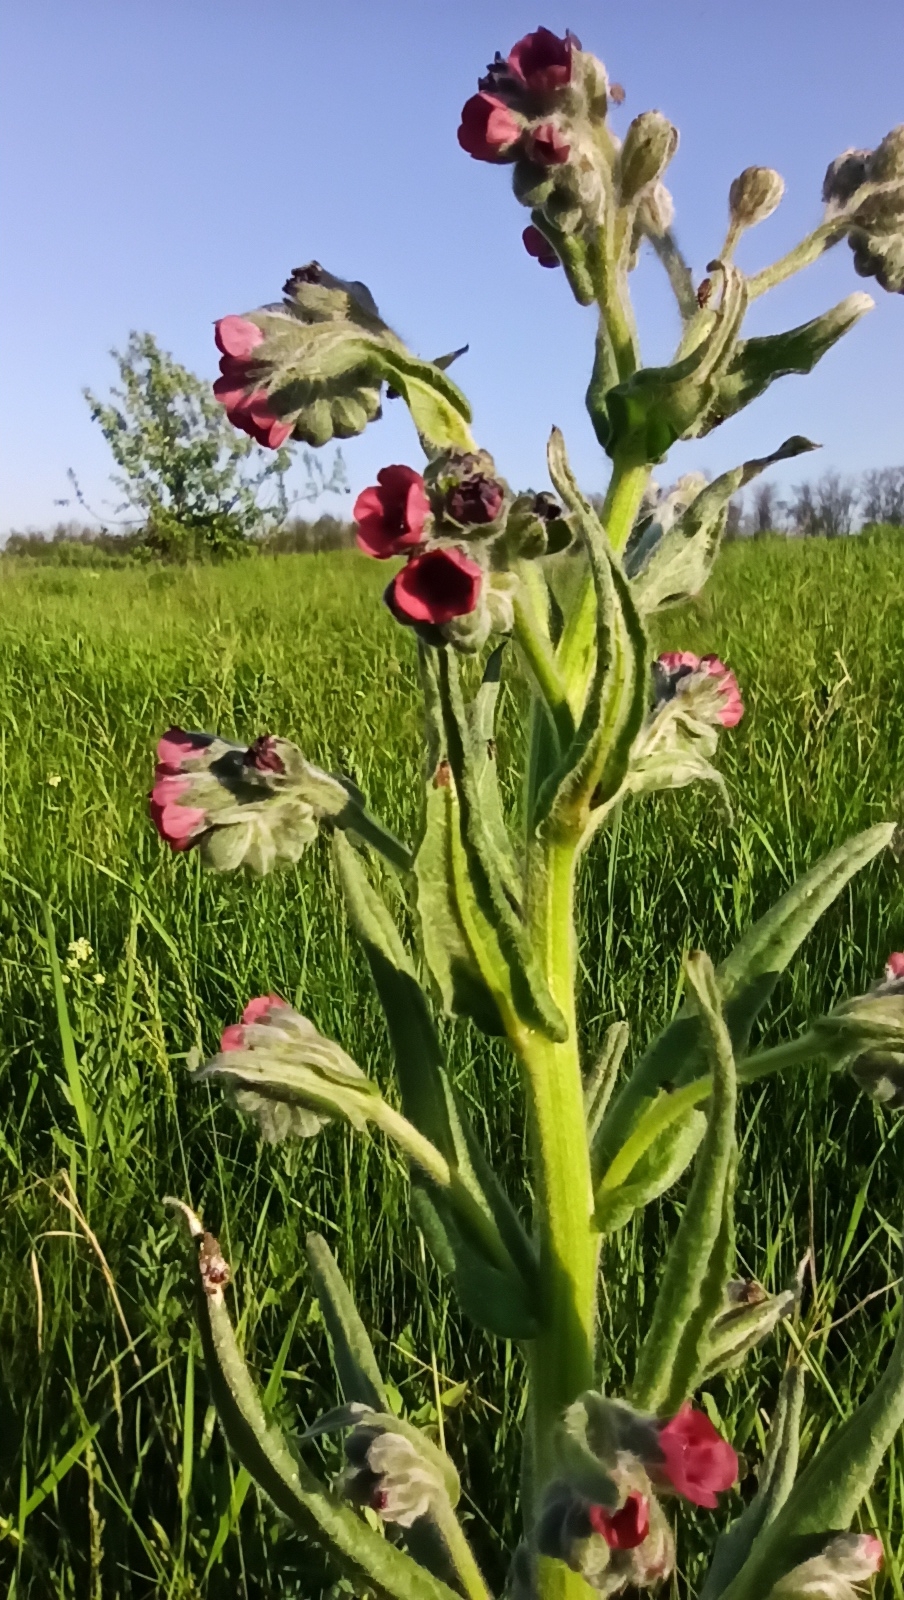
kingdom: Plantae
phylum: Tracheophyta
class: Magnoliopsida
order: Boraginales
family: Boraginaceae
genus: Cynoglossum
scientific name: Cynoglossum officinale
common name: Hound's-tongue
